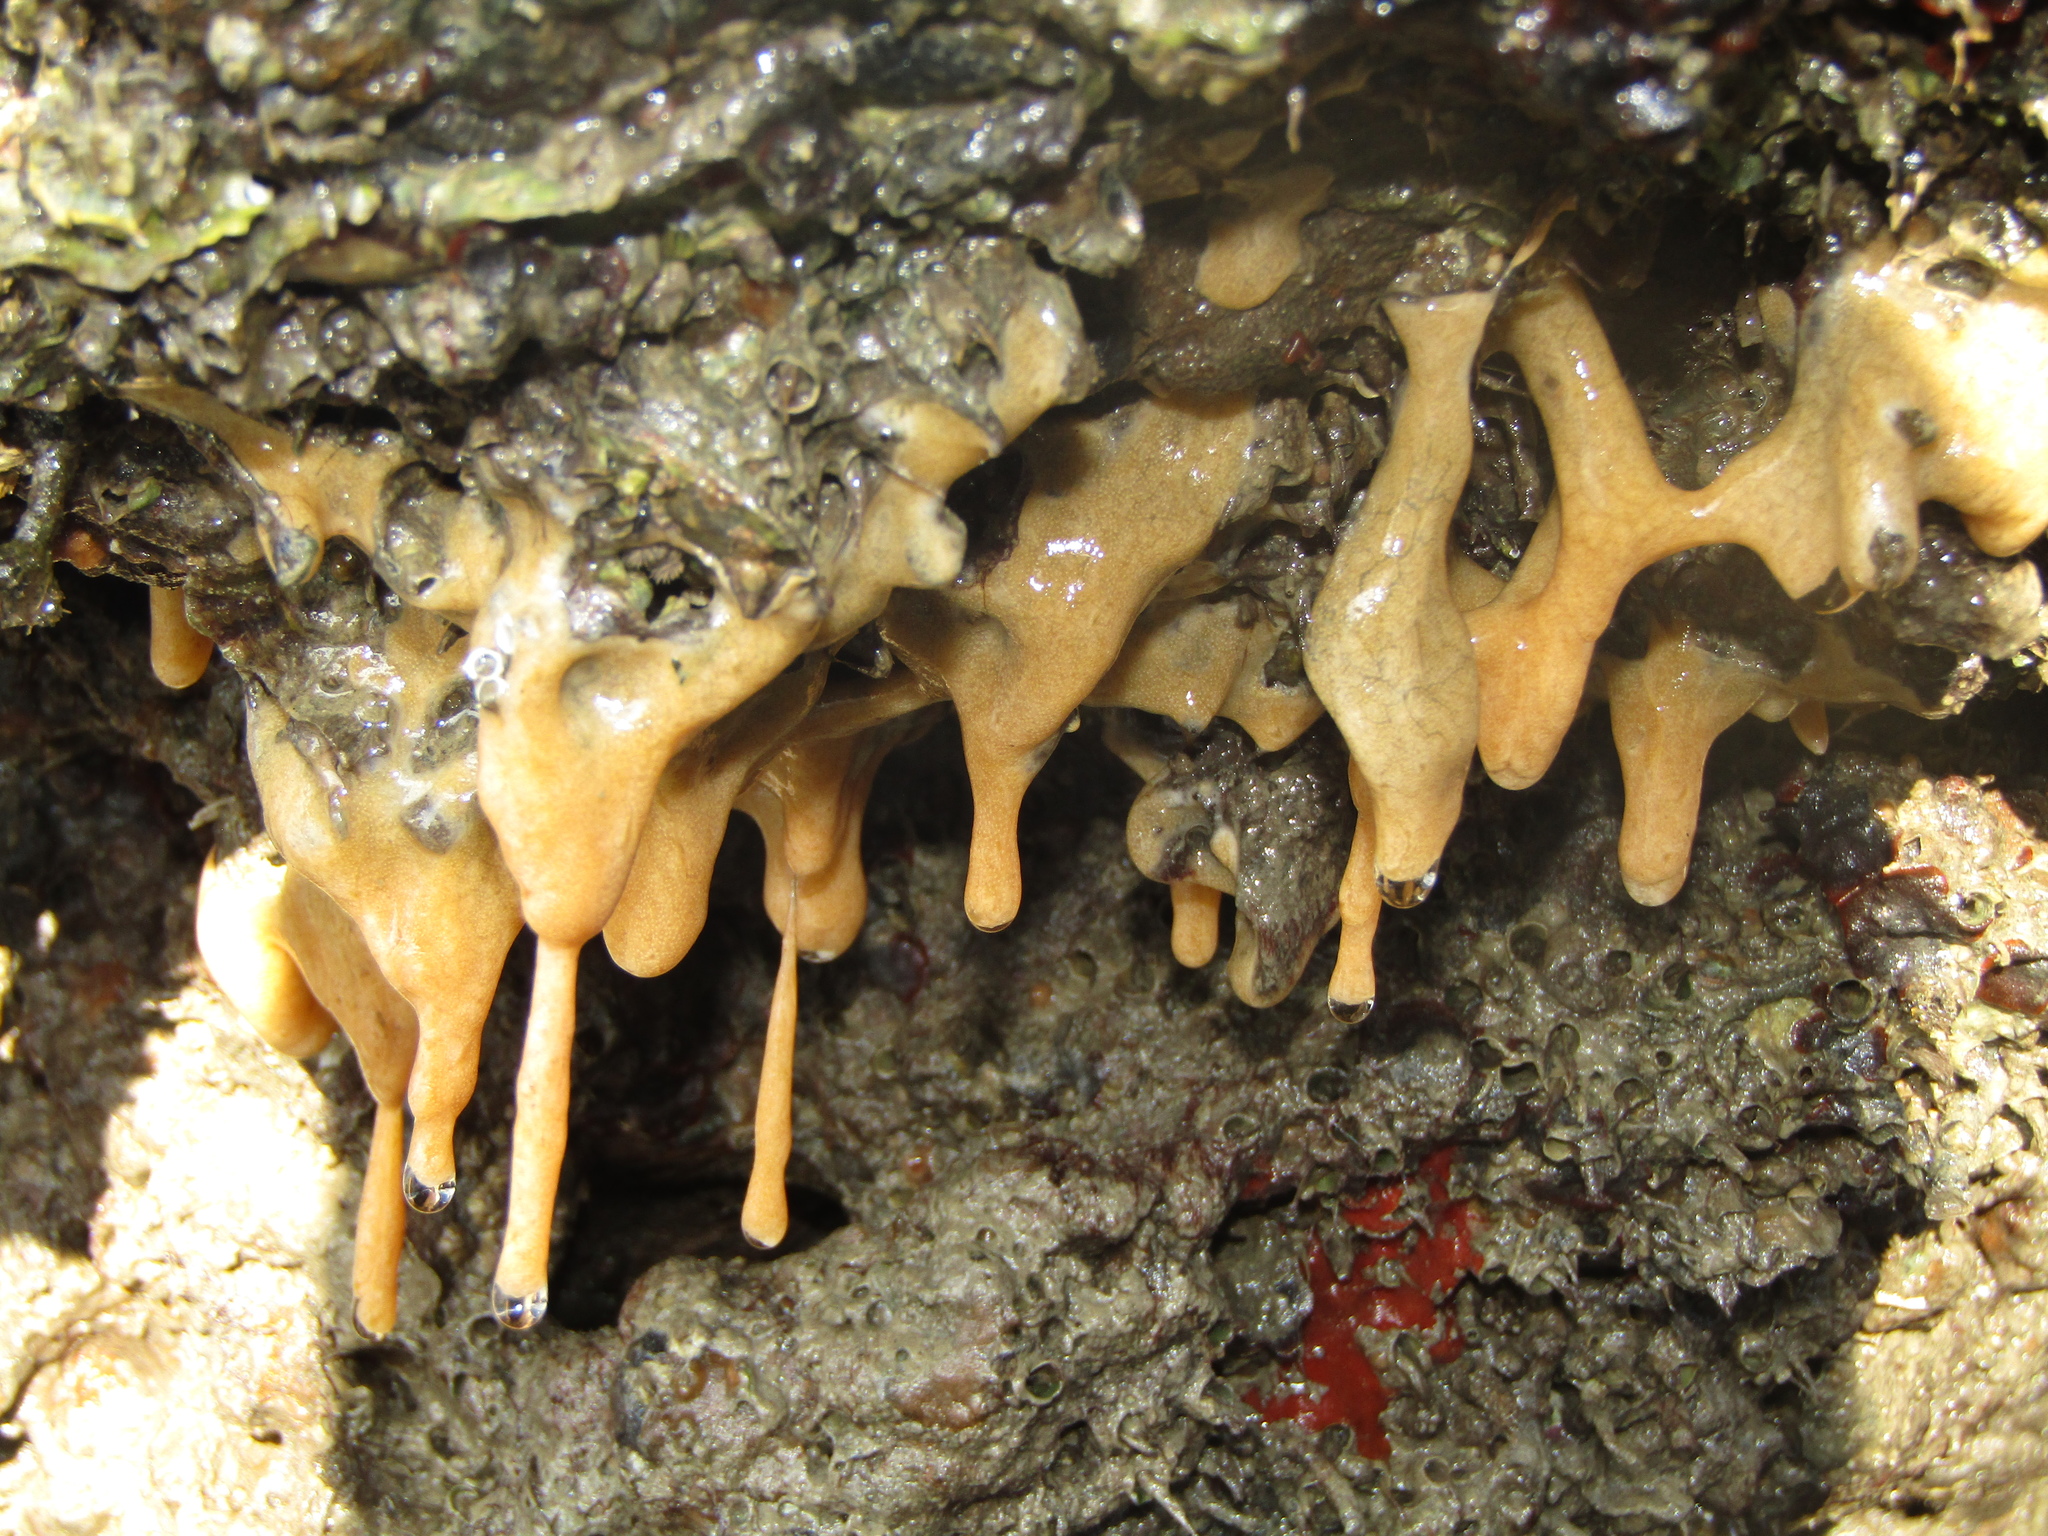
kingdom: Animalia
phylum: Chordata
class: Ascidiacea
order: Aplousobranchia
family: Didemnidae
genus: Didemnum
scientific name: Didemnum vexillum
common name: Compound sea squirt
